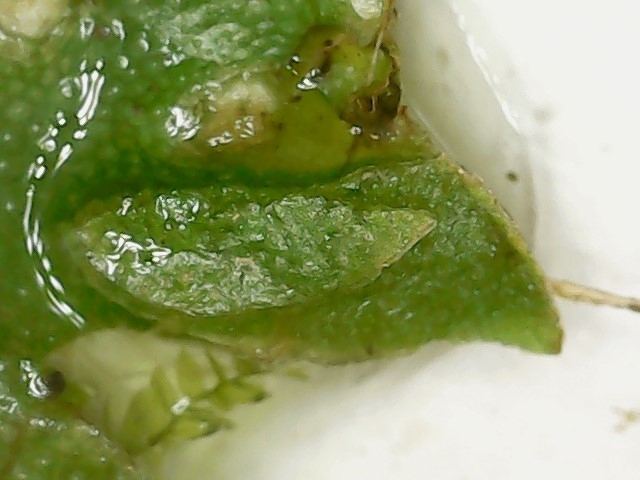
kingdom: Plantae
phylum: Marchantiophyta
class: Marchantiopsida
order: Lunulariales
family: Lunulariaceae
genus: Lunularia
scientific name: Lunularia cruciata
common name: Crescent-cup liverwort
